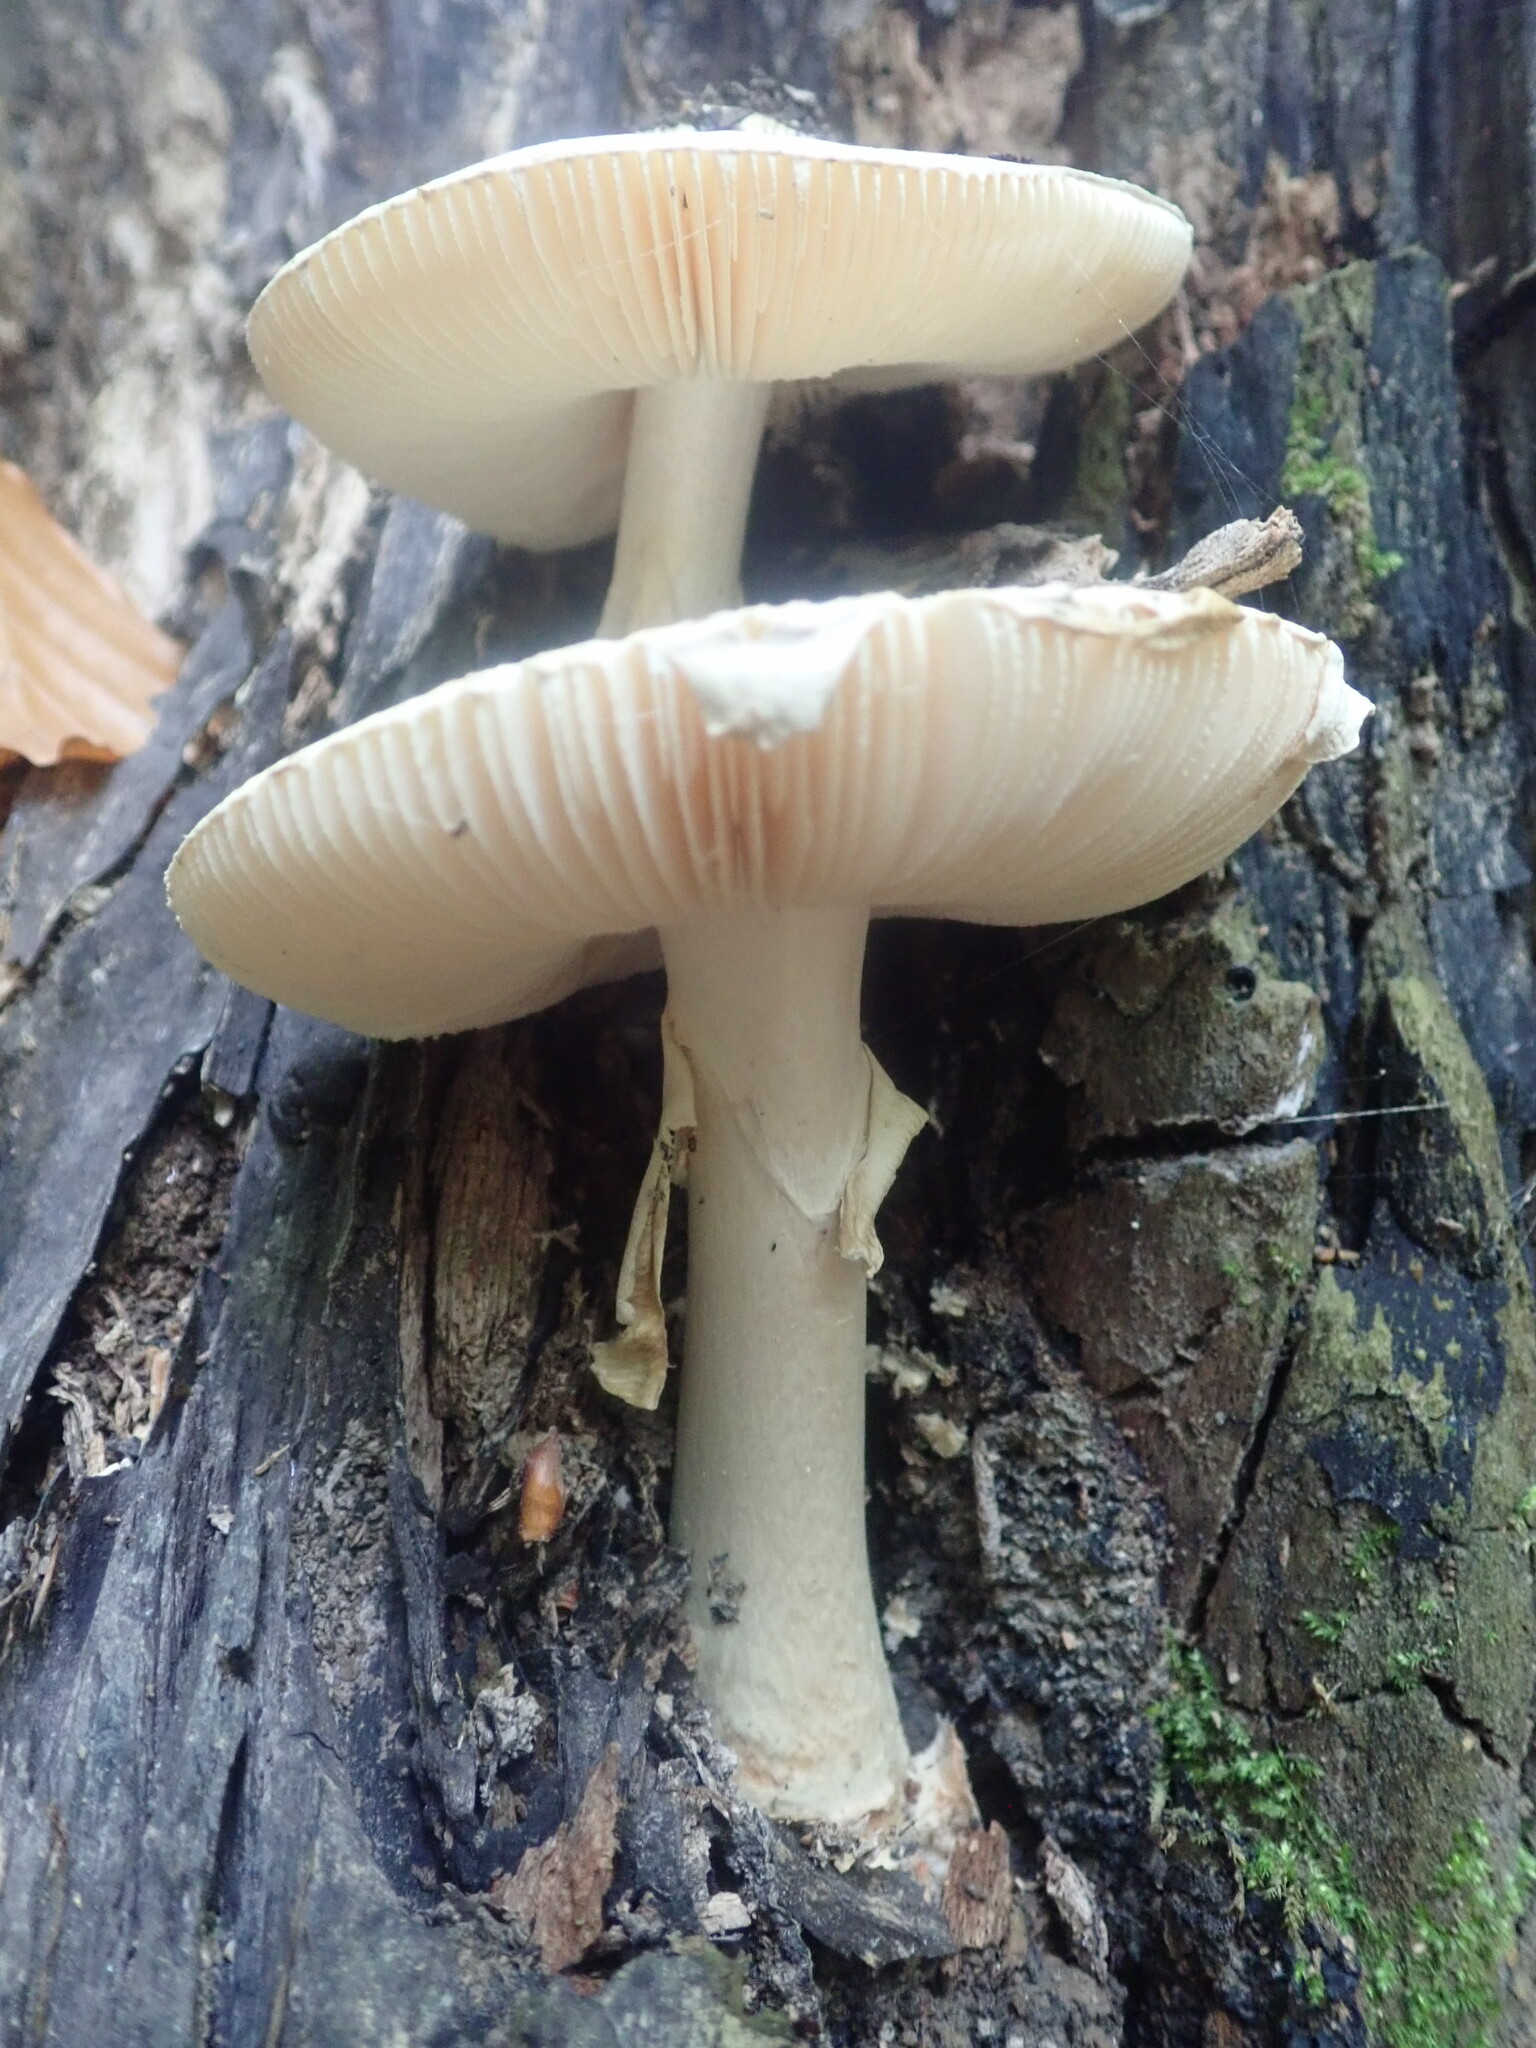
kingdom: Fungi
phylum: Basidiomycota
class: Agaricomycetes
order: Agaricales
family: Amanitaceae
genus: Amanita
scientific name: Amanita citrina
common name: False death-cap
